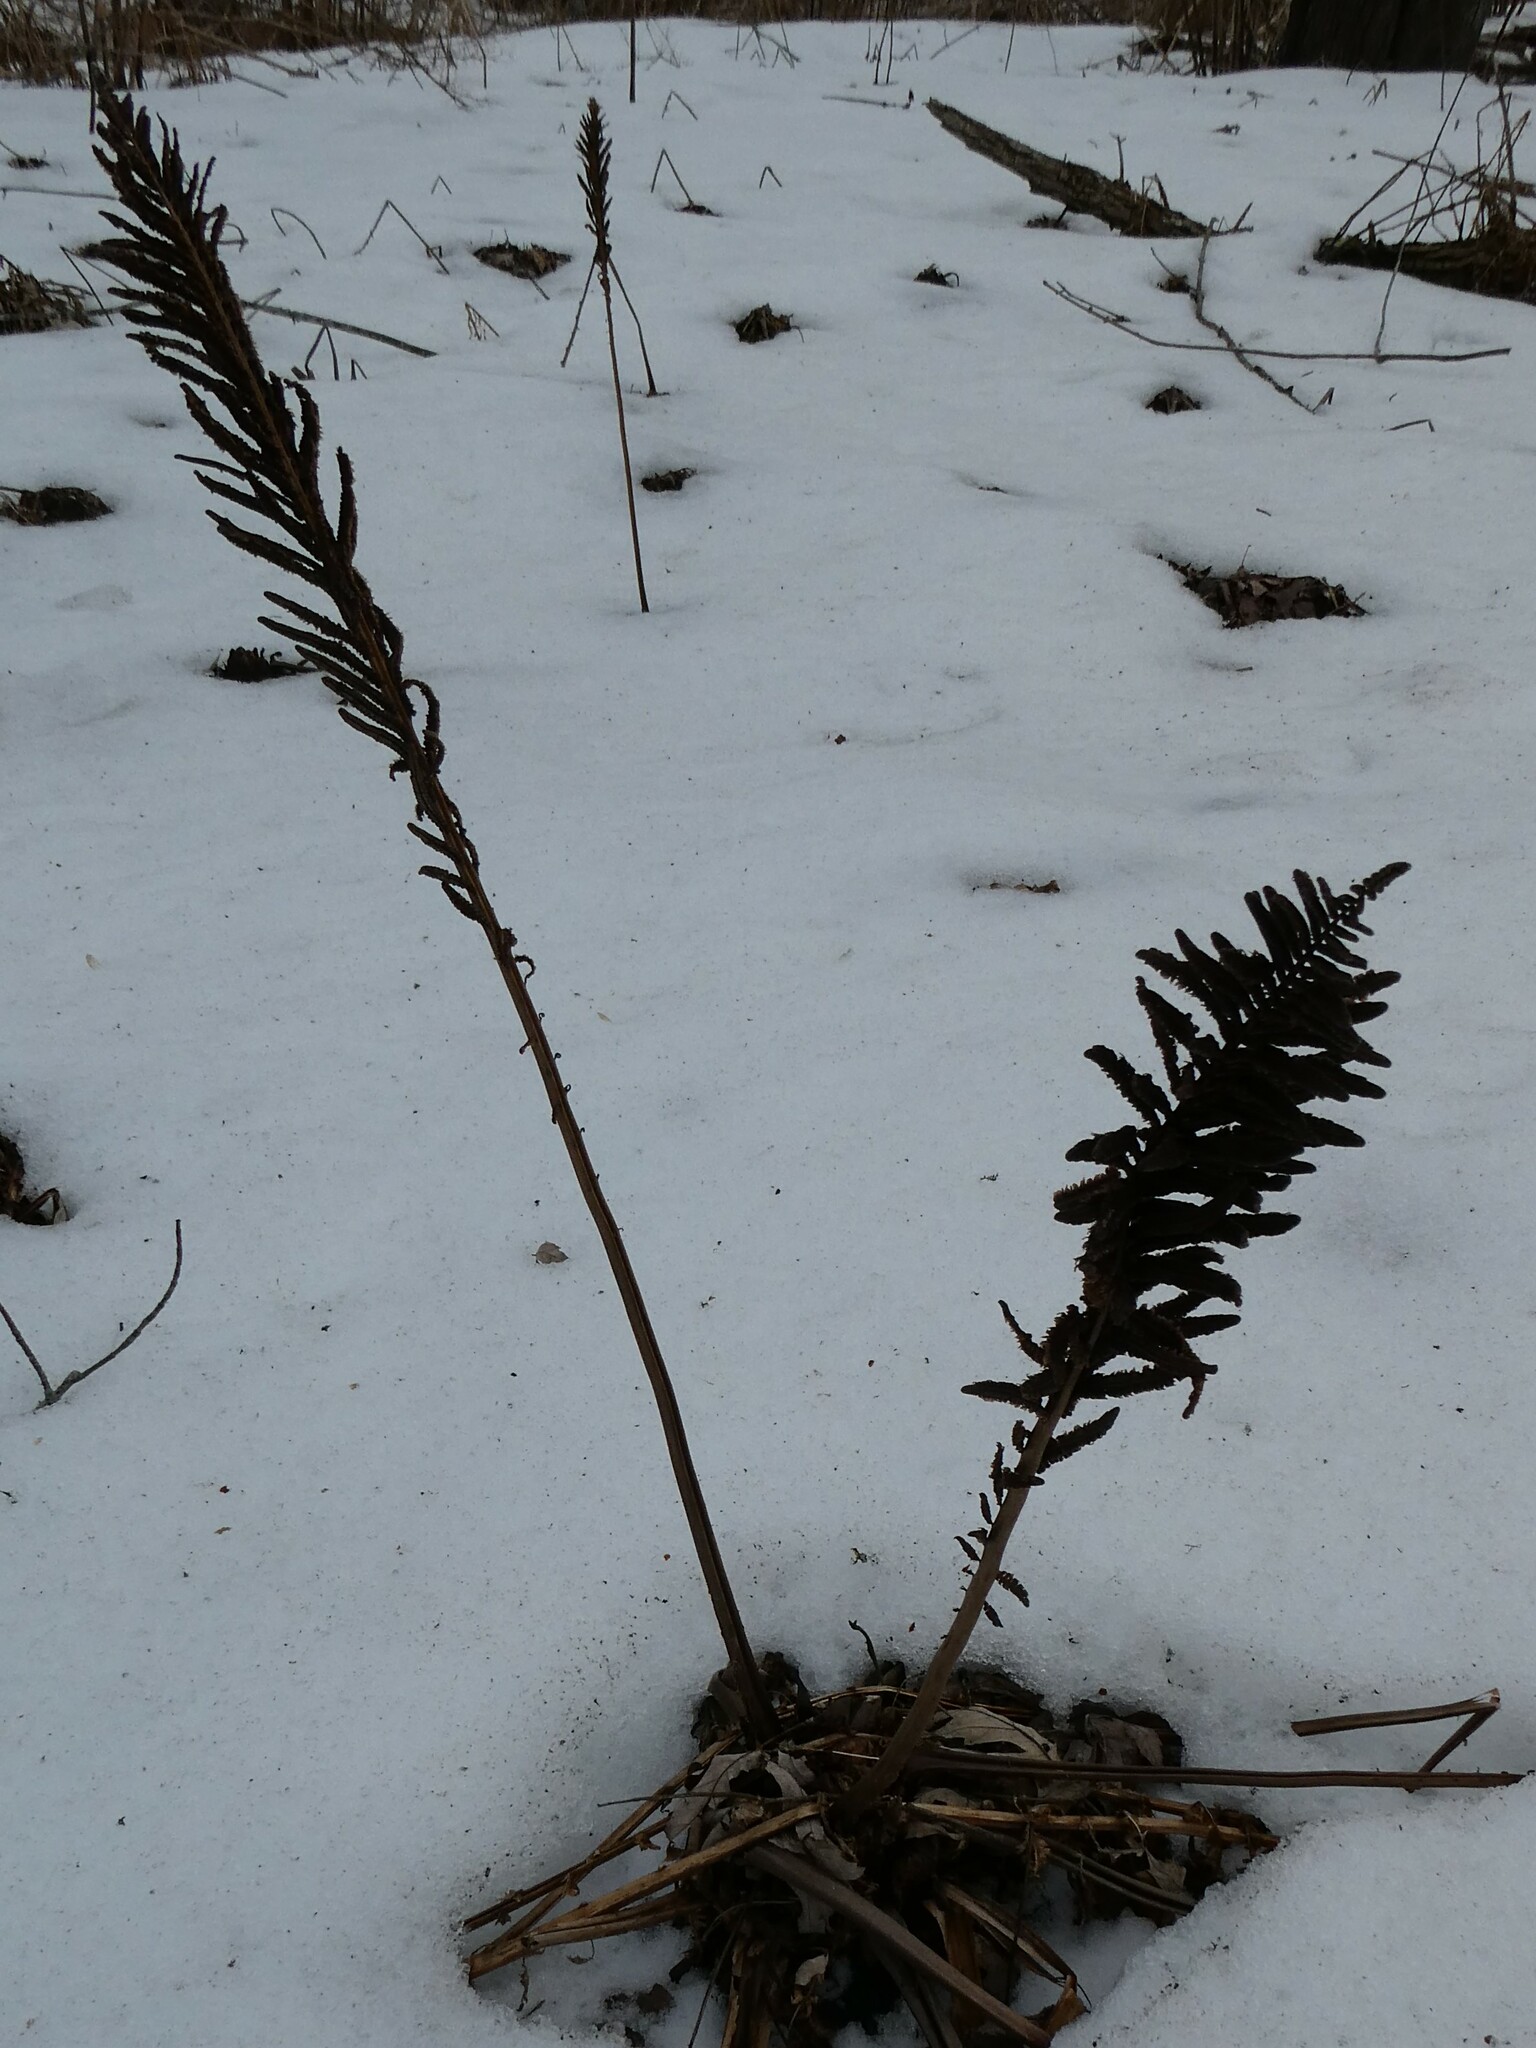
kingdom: Plantae
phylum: Tracheophyta
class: Polypodiopsida
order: Polypodiales
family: Onocleaceae
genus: Matteuccia
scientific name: Matteuccia struthiopteris
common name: Ostrich fern
